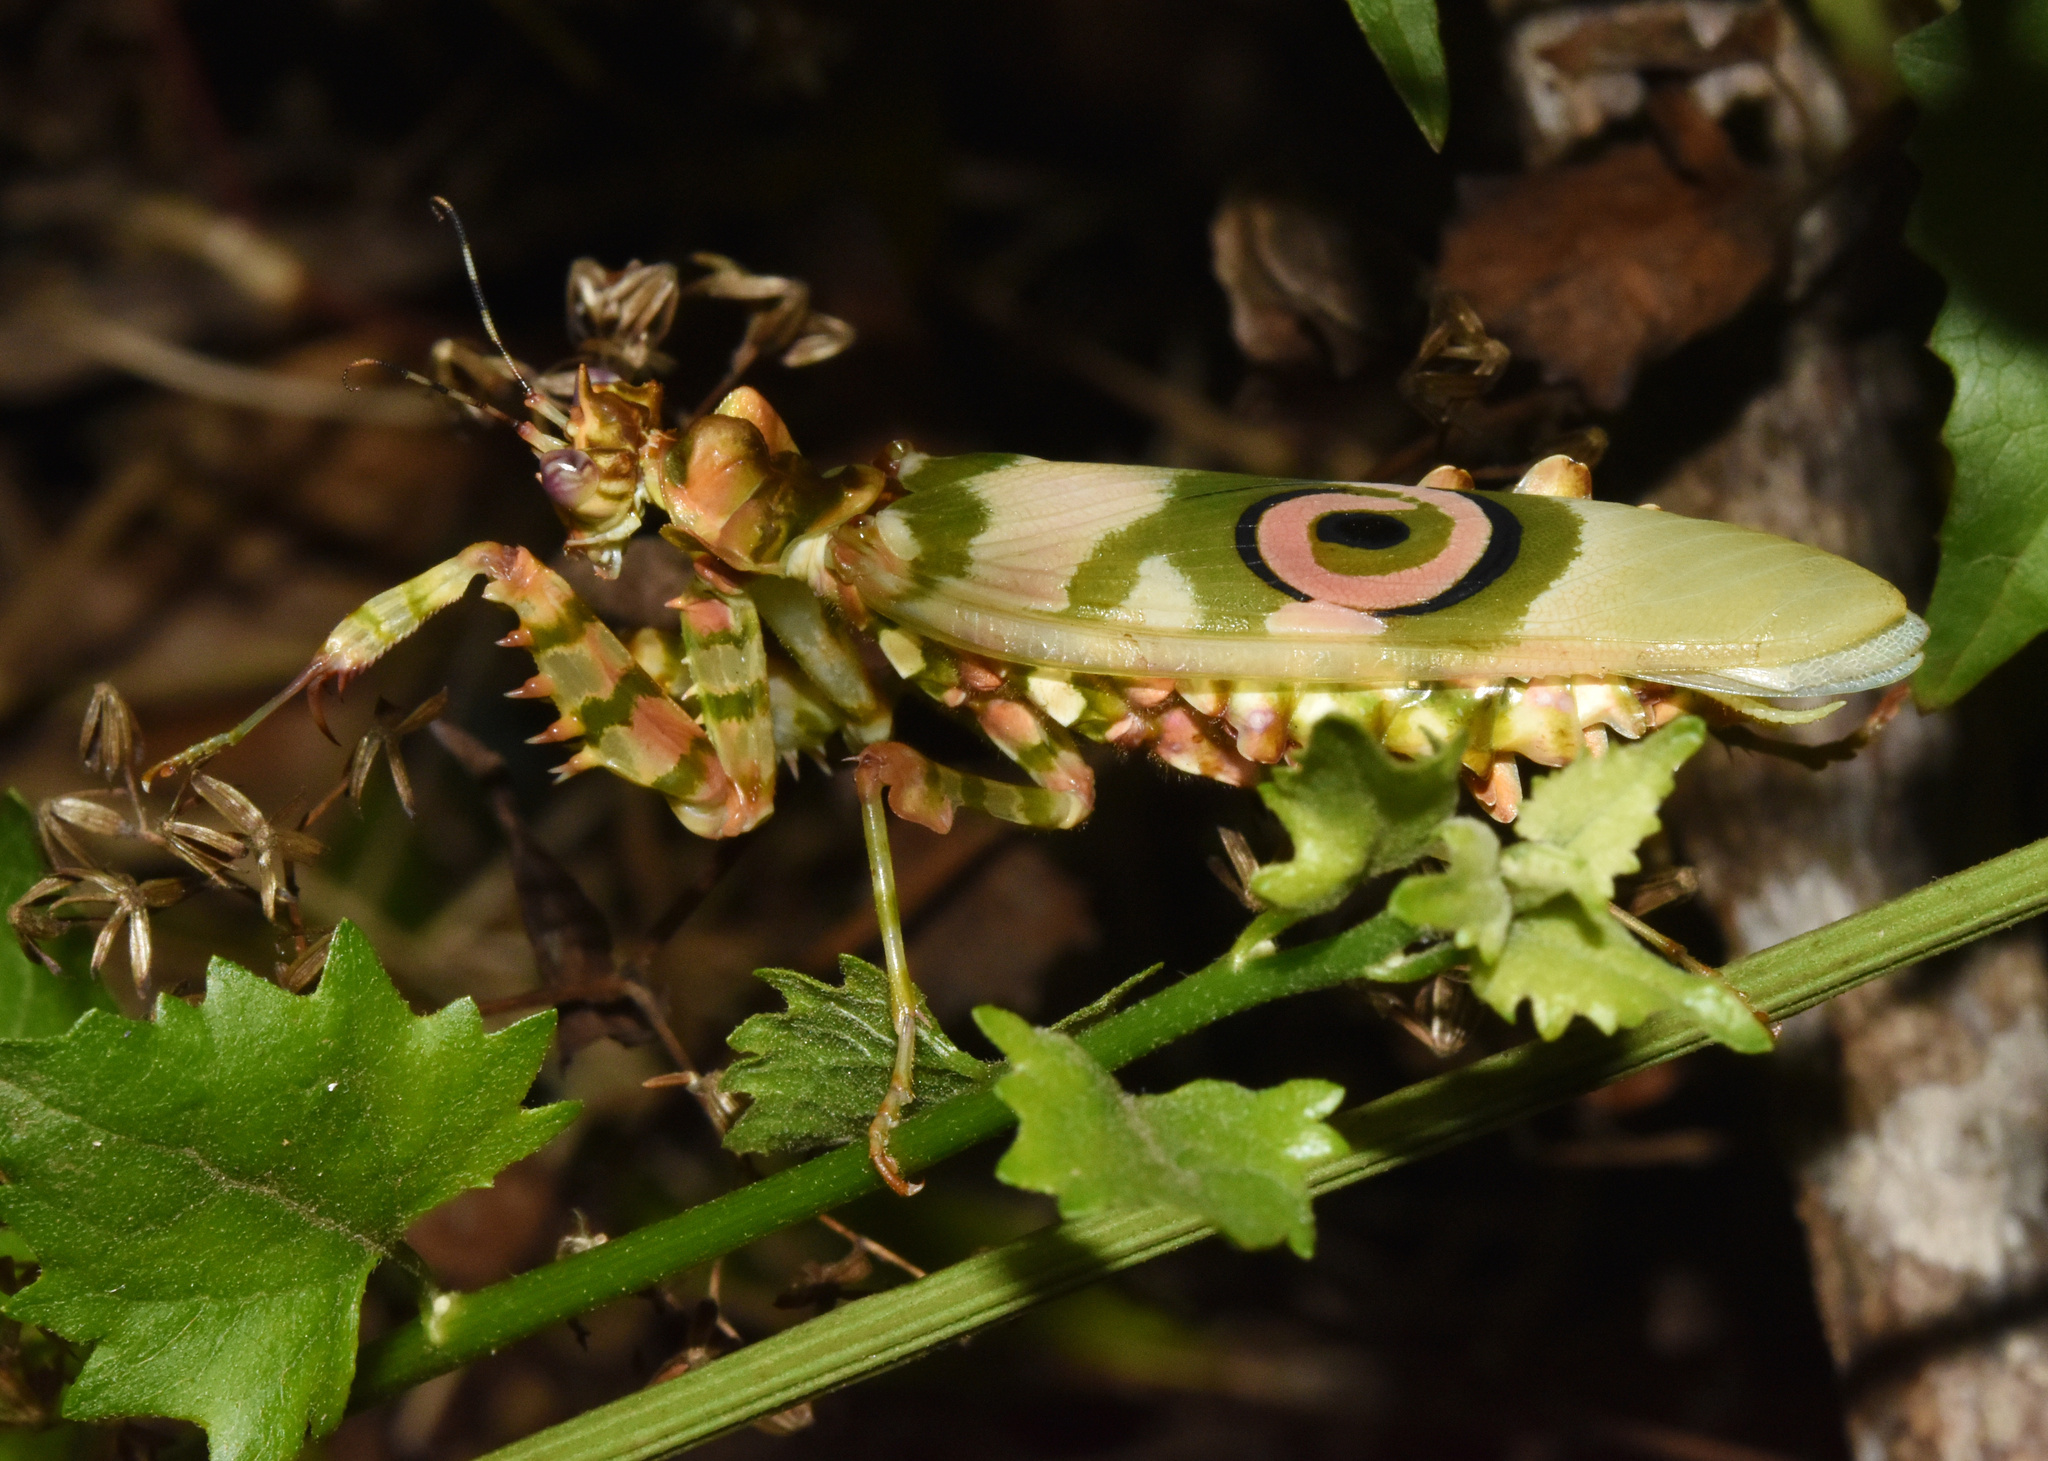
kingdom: Animalia
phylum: Arthropoda
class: Insecta
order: Mantodea
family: Hymenopodidae
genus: Pseudocreobotra
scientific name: Pseudocreobotra wahlbergi
